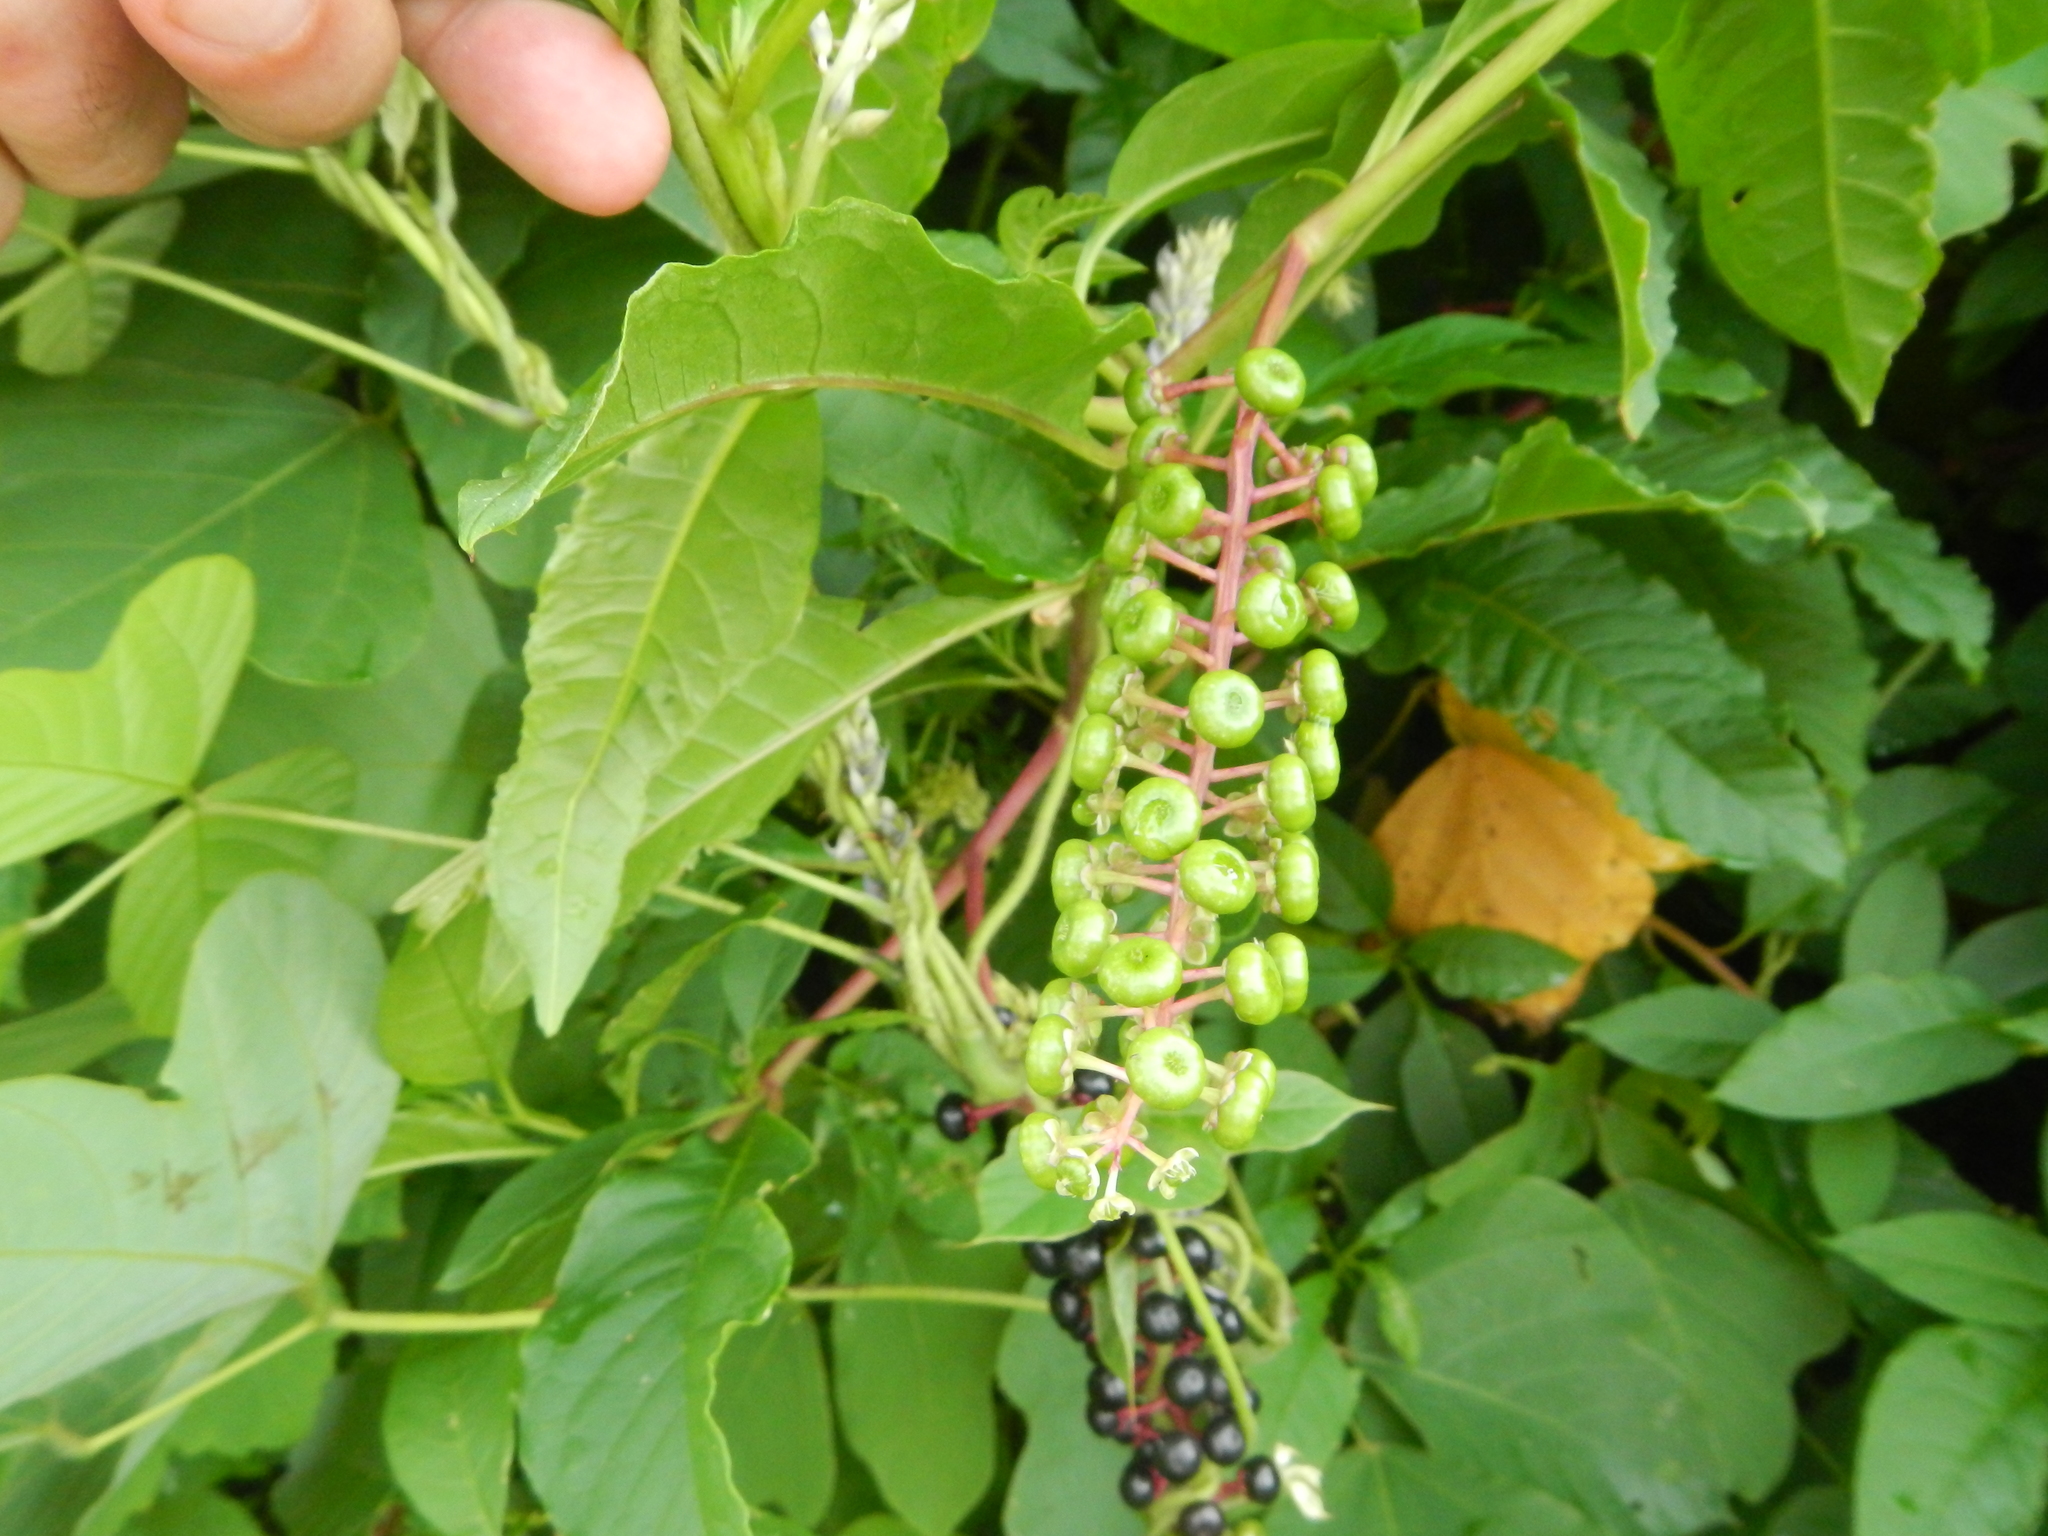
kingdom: Plantae
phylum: Tracheophyta
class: Magnoliopsida
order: Caryophyllales
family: Phytolaccaceae
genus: Phytolacca
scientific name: Phytolacca americana
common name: American pokeweed
